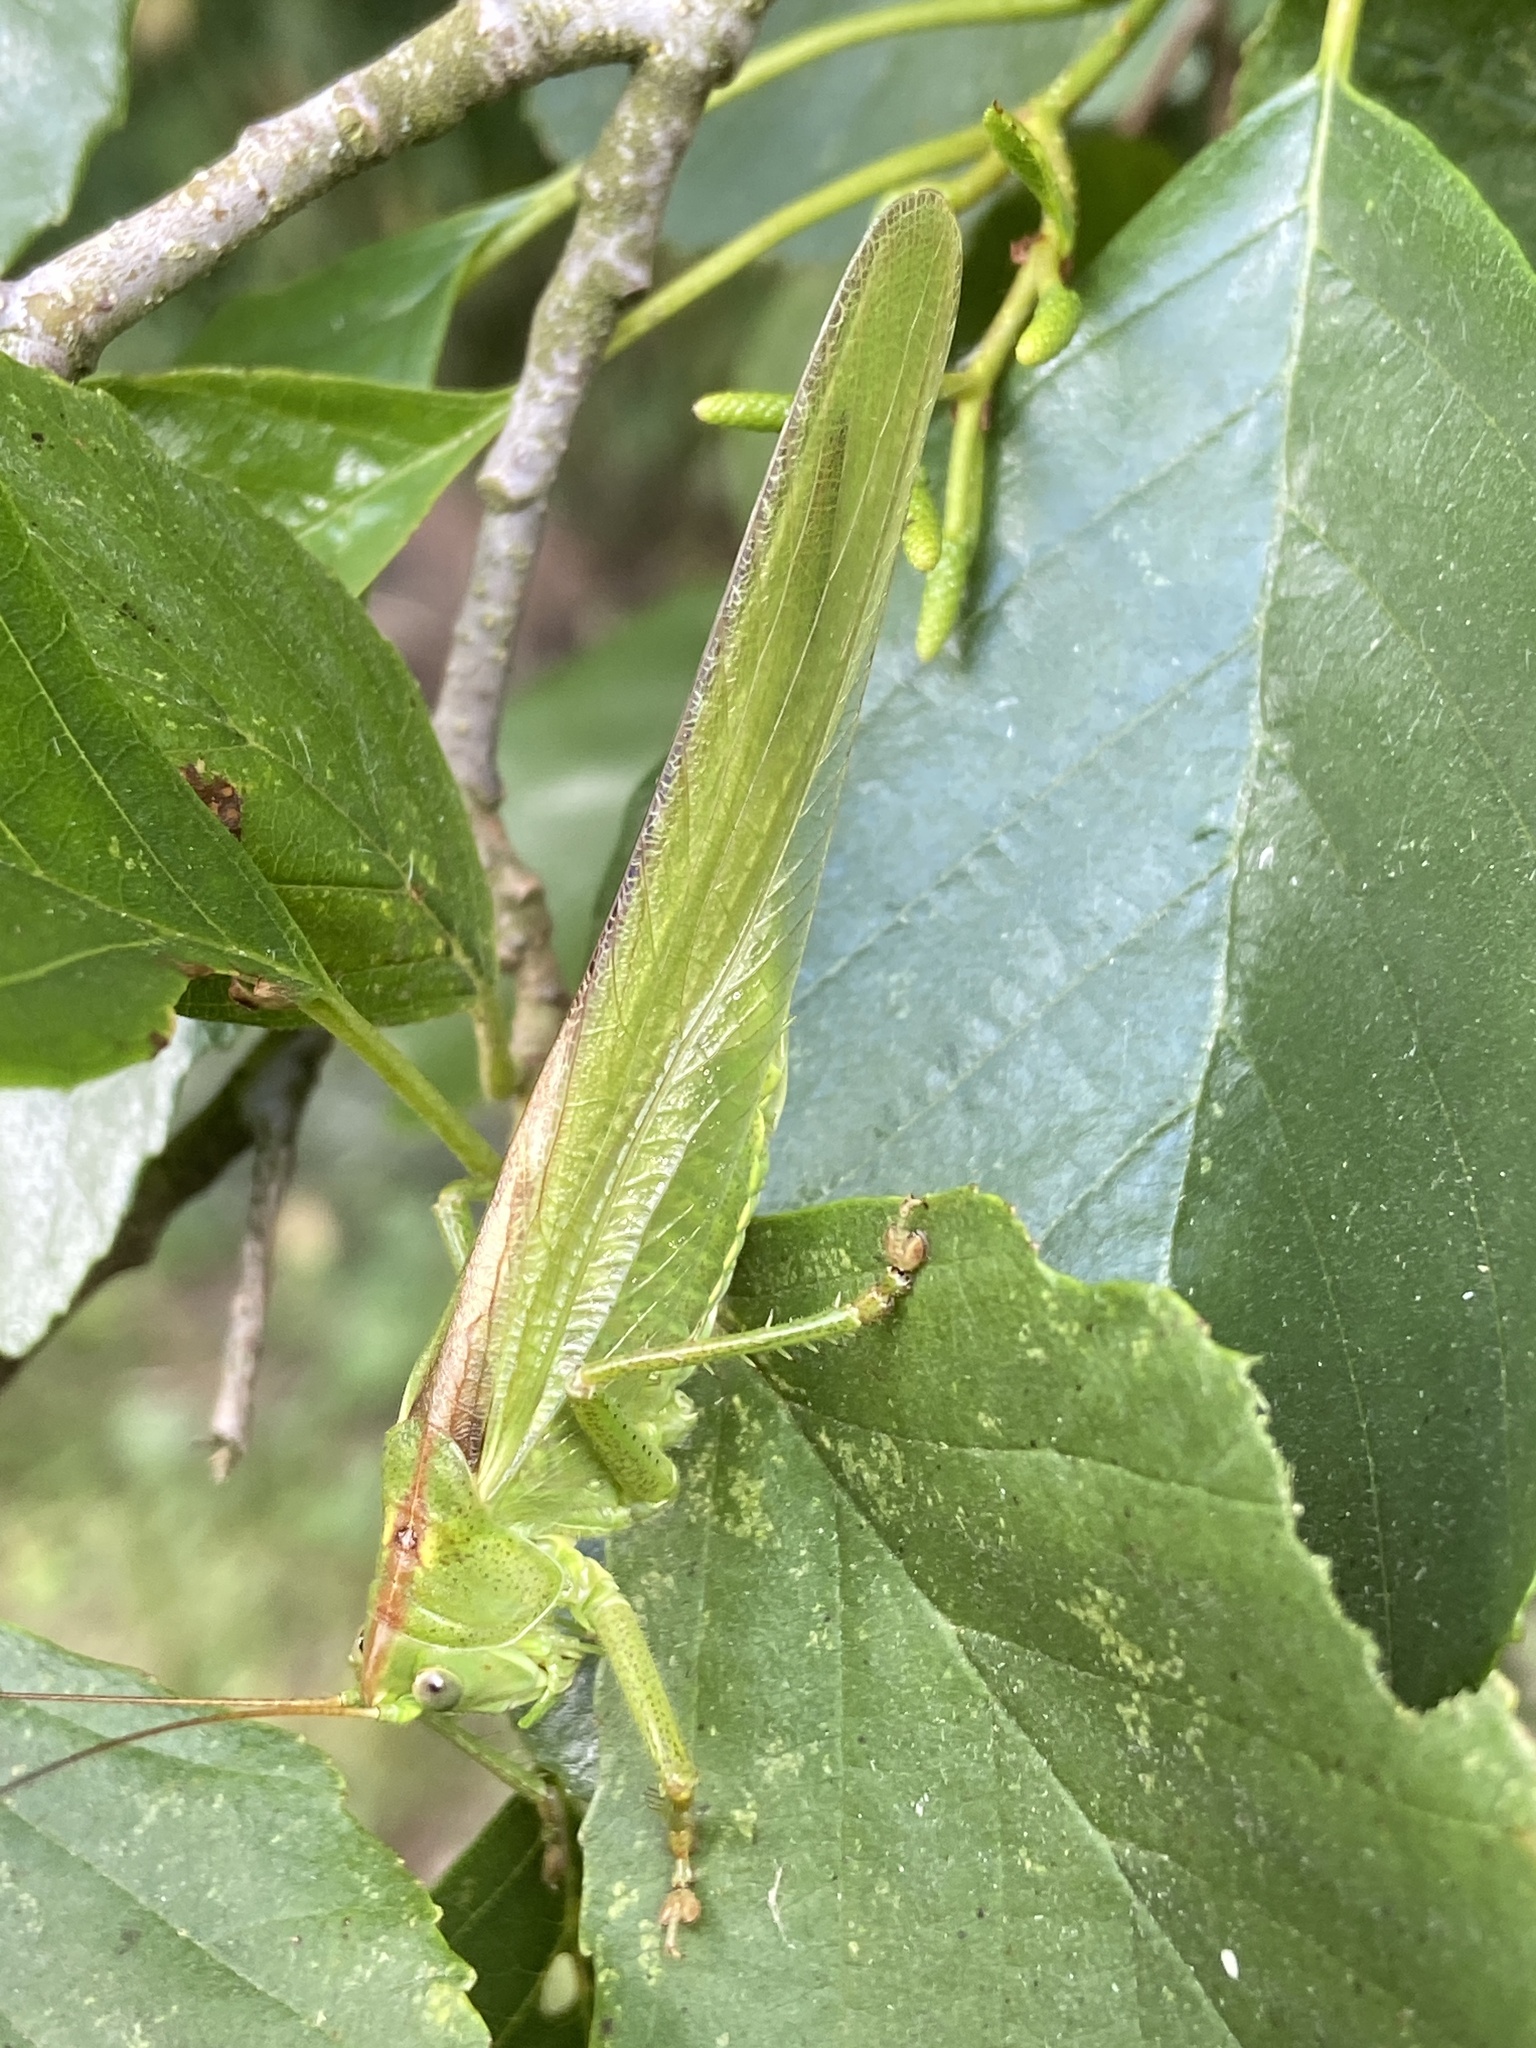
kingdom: Animalia
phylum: Arthropoda
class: Insecta
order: Orthoptera
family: Tettigoniidae
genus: Tettigonia
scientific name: Tettigonia viridissima
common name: Great green bush-cricket
